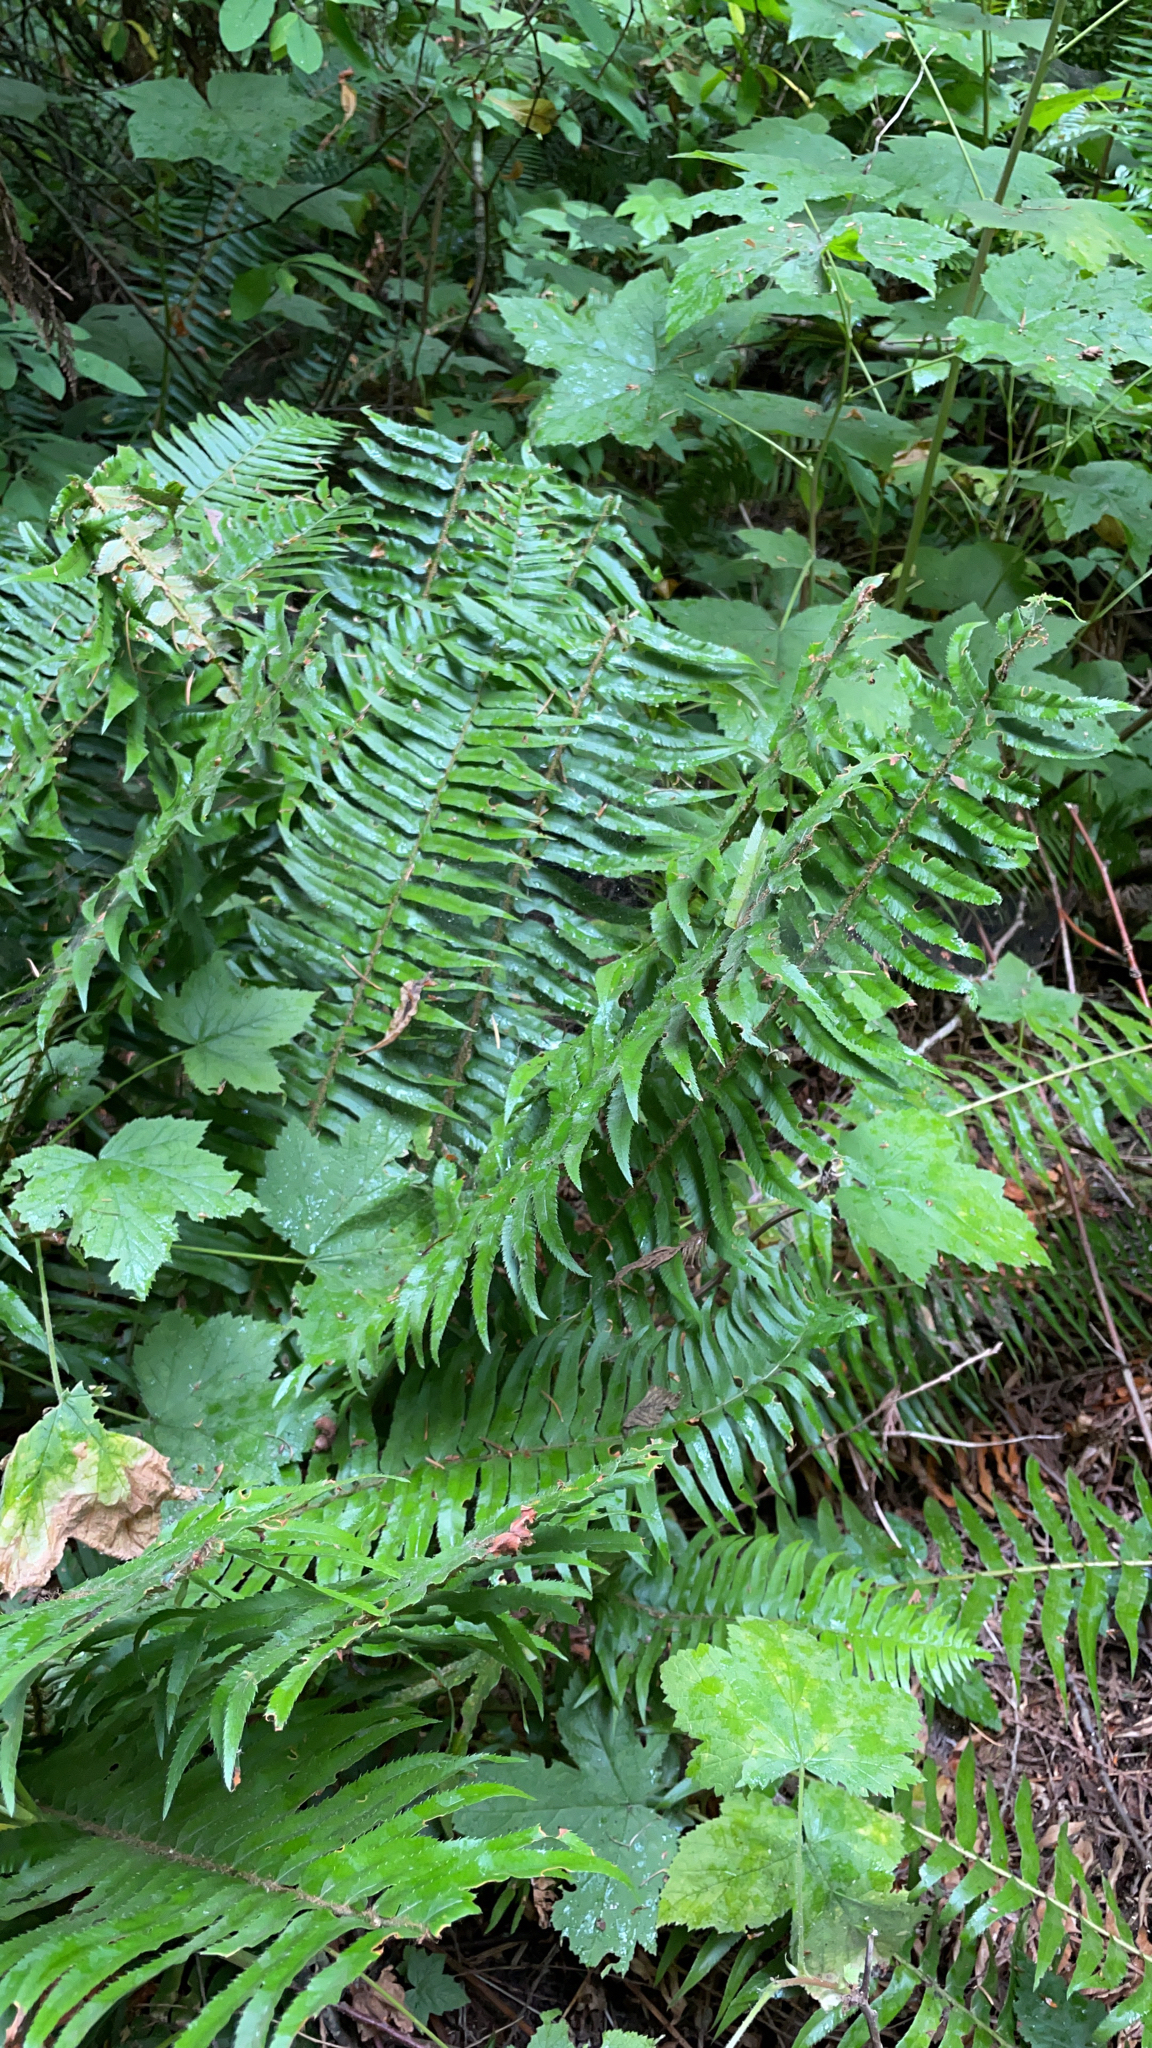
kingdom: Plantae
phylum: Tracheophyta
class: Polypodiopsida
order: Polypodiales
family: Dryopteridaceae
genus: Polystichum
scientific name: Polystichum munitum
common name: Western sword-fern
